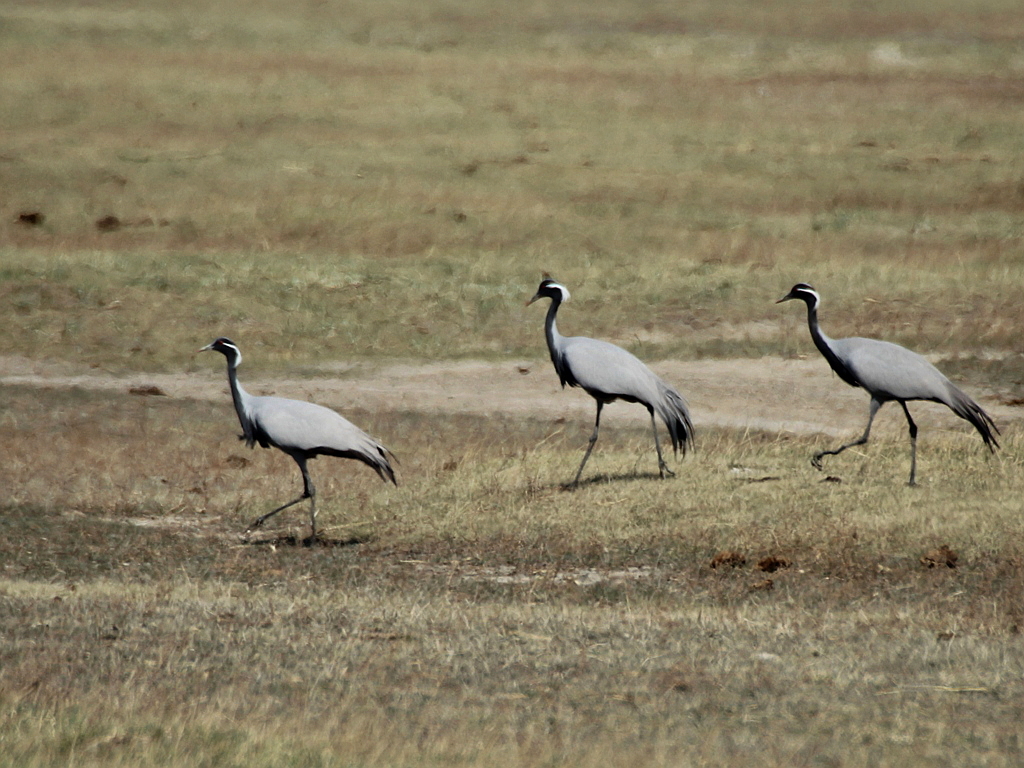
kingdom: Animalia
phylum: Chordata
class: Aves
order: Gruiformes
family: Gruidae
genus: Anthropoides
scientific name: Anthropoides virgo
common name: Demoiselle crane
